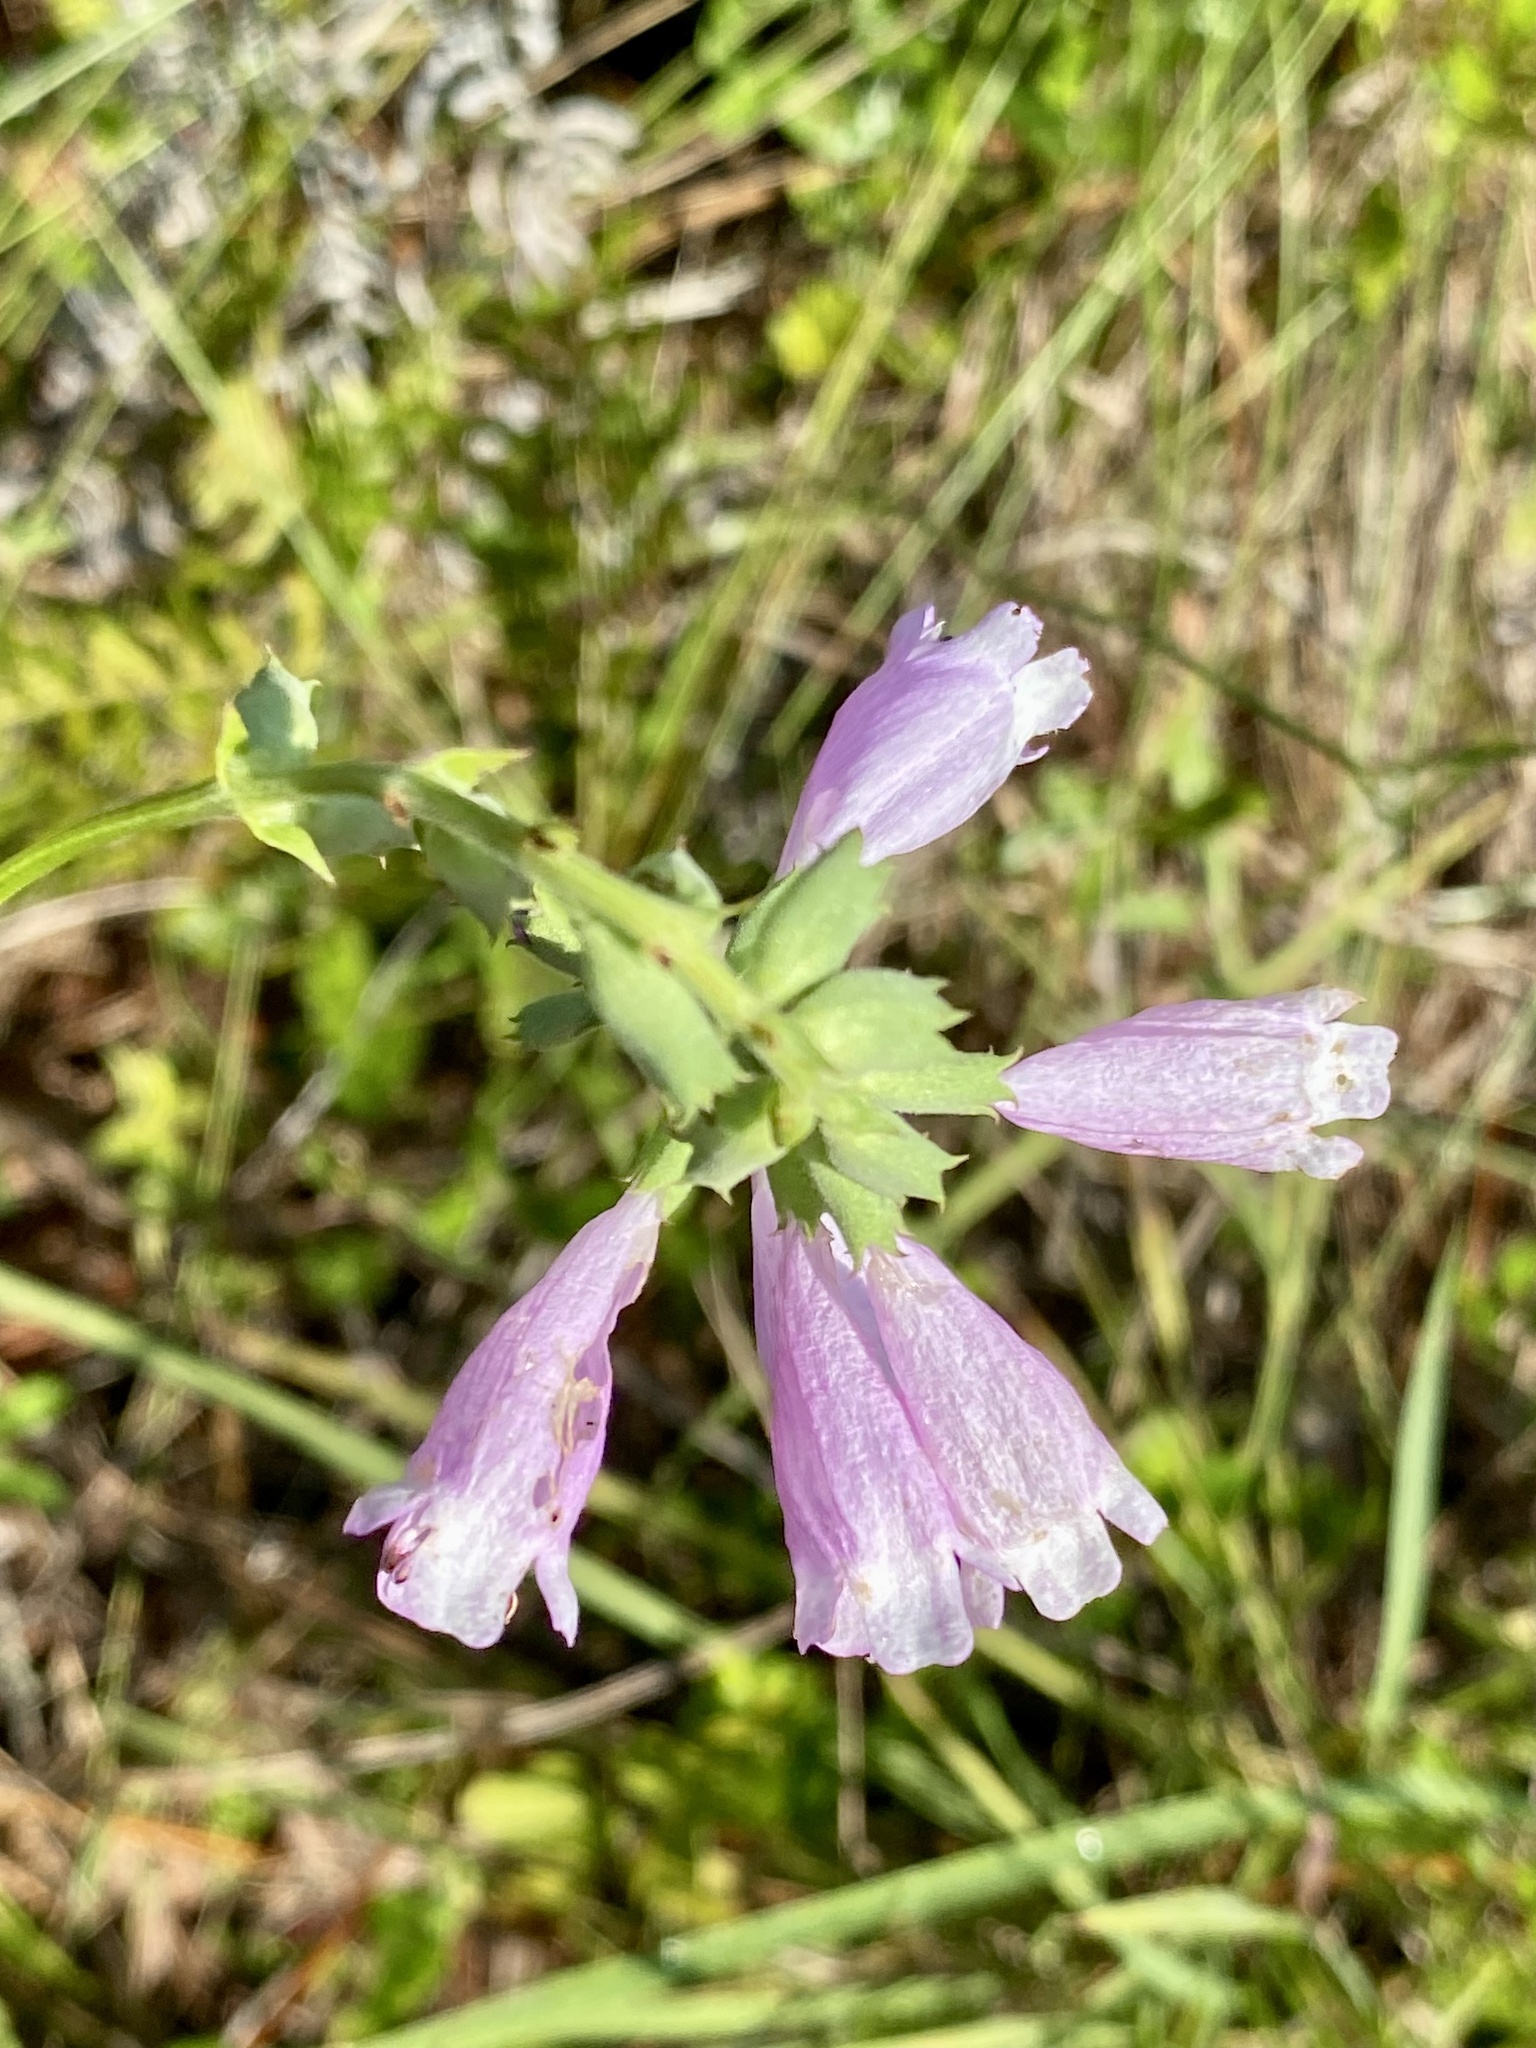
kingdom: Plantae
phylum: Tracheophyta
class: Magnoliopsida
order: Lamiales
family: Lamiaceae
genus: Physostegia
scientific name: Physostegia purpurea
